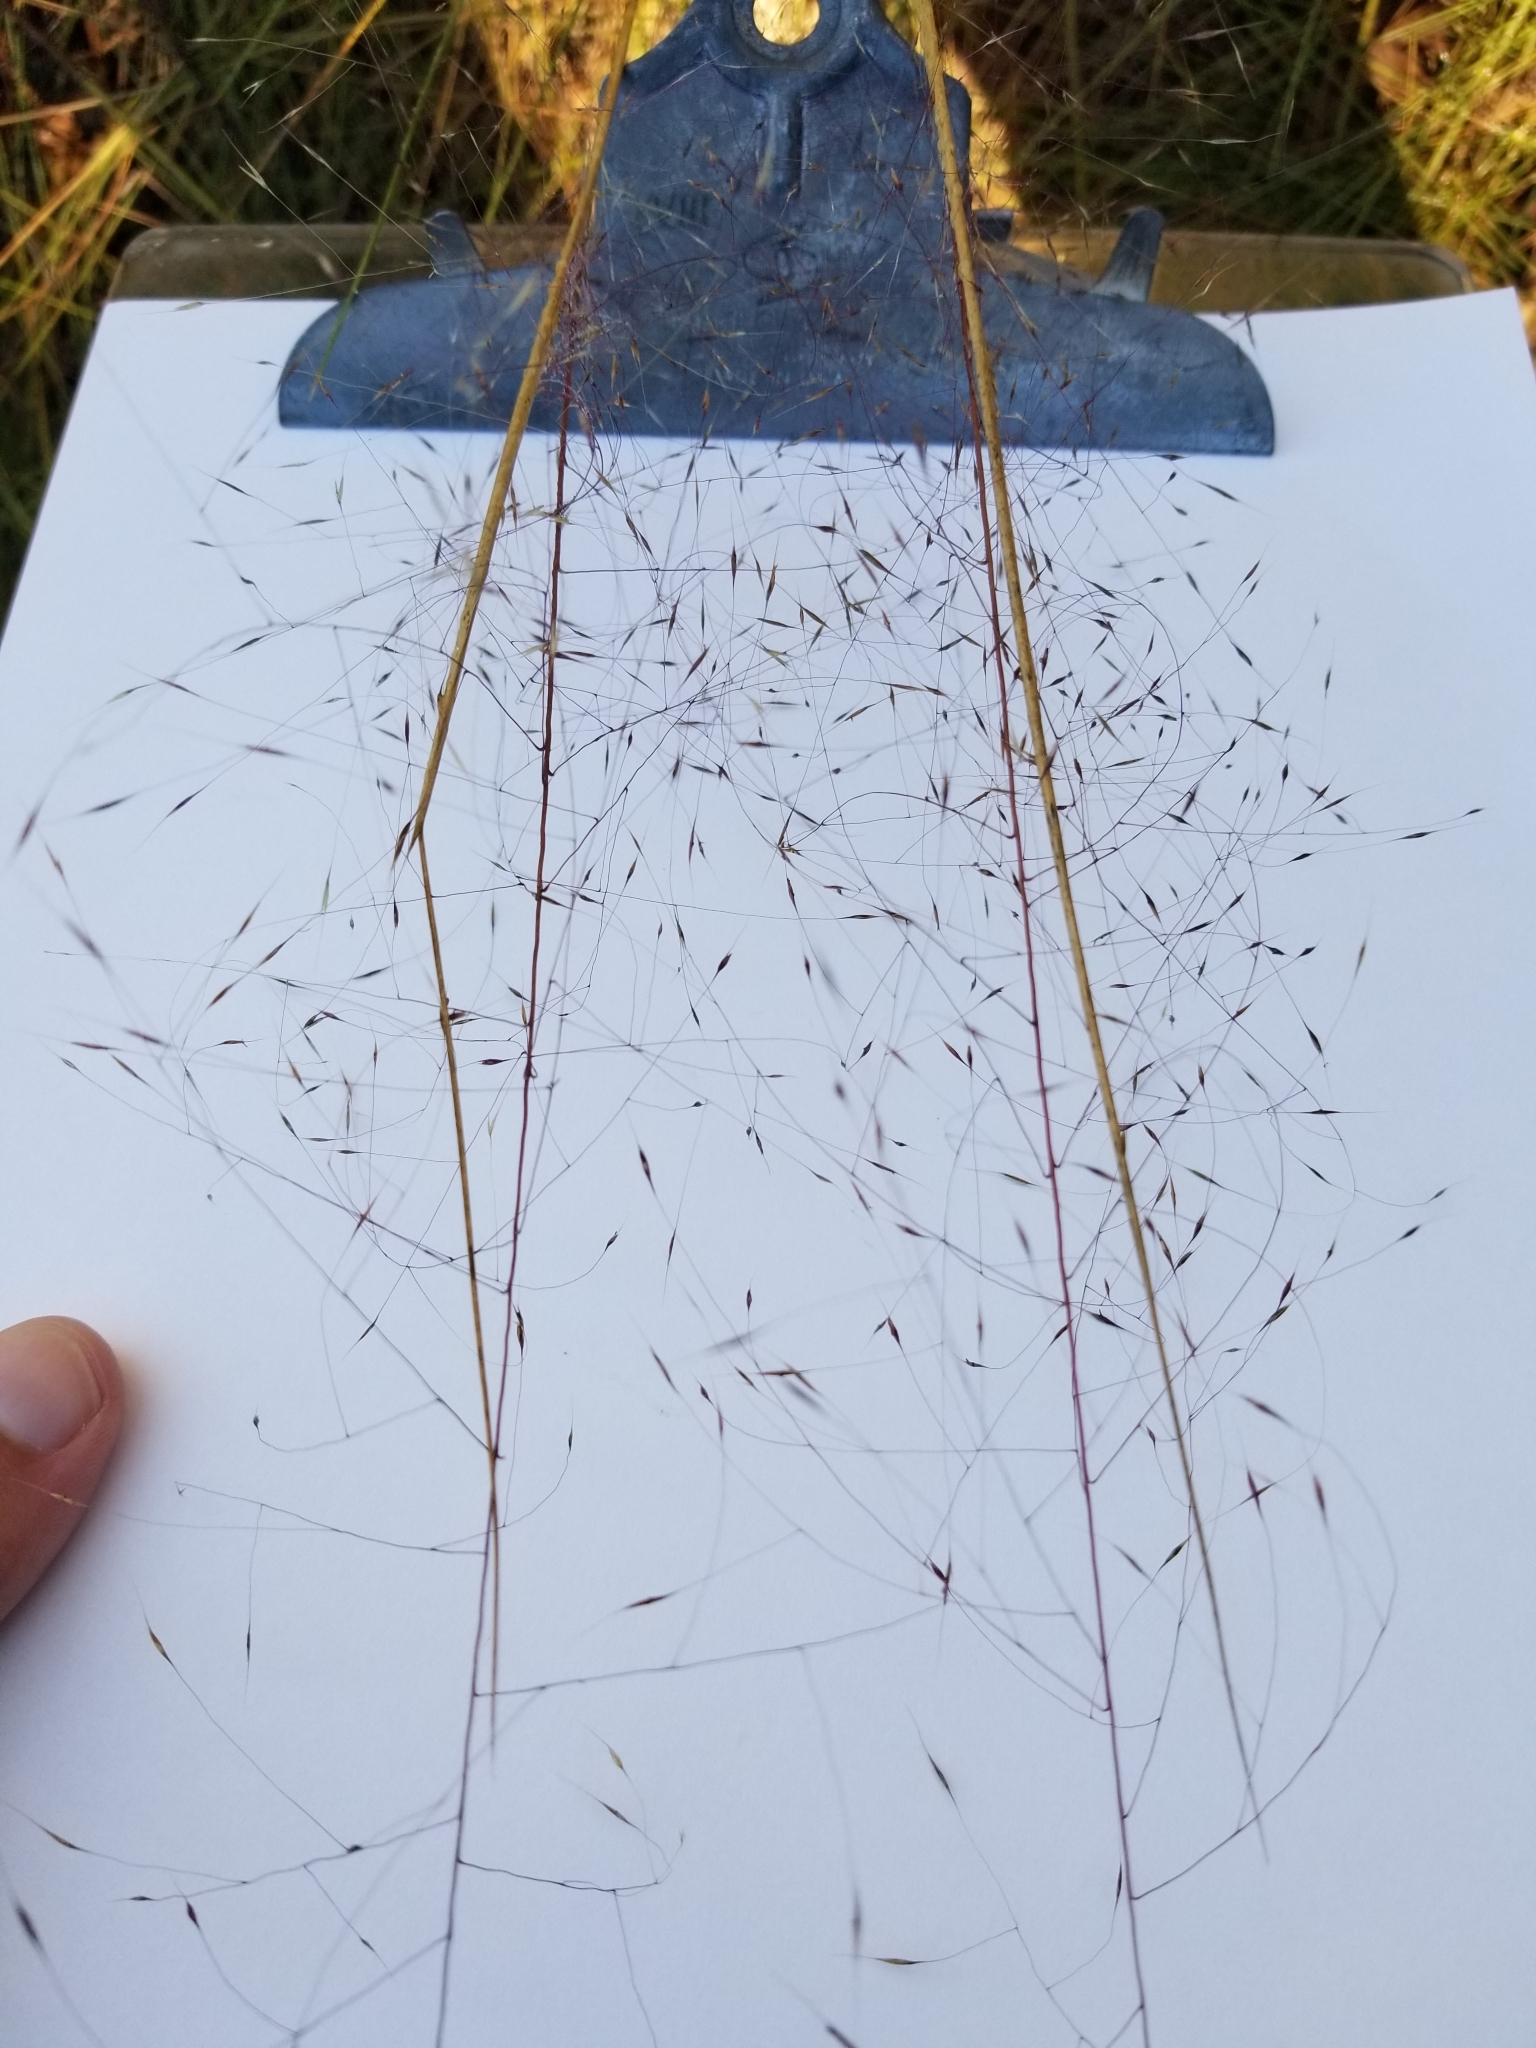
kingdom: Plantae
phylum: Tracheophyta
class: Liliopsida
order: Poales
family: Poaceae
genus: Muhlenbergia
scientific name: Muhlenbergia capillaris
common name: Purple grass
